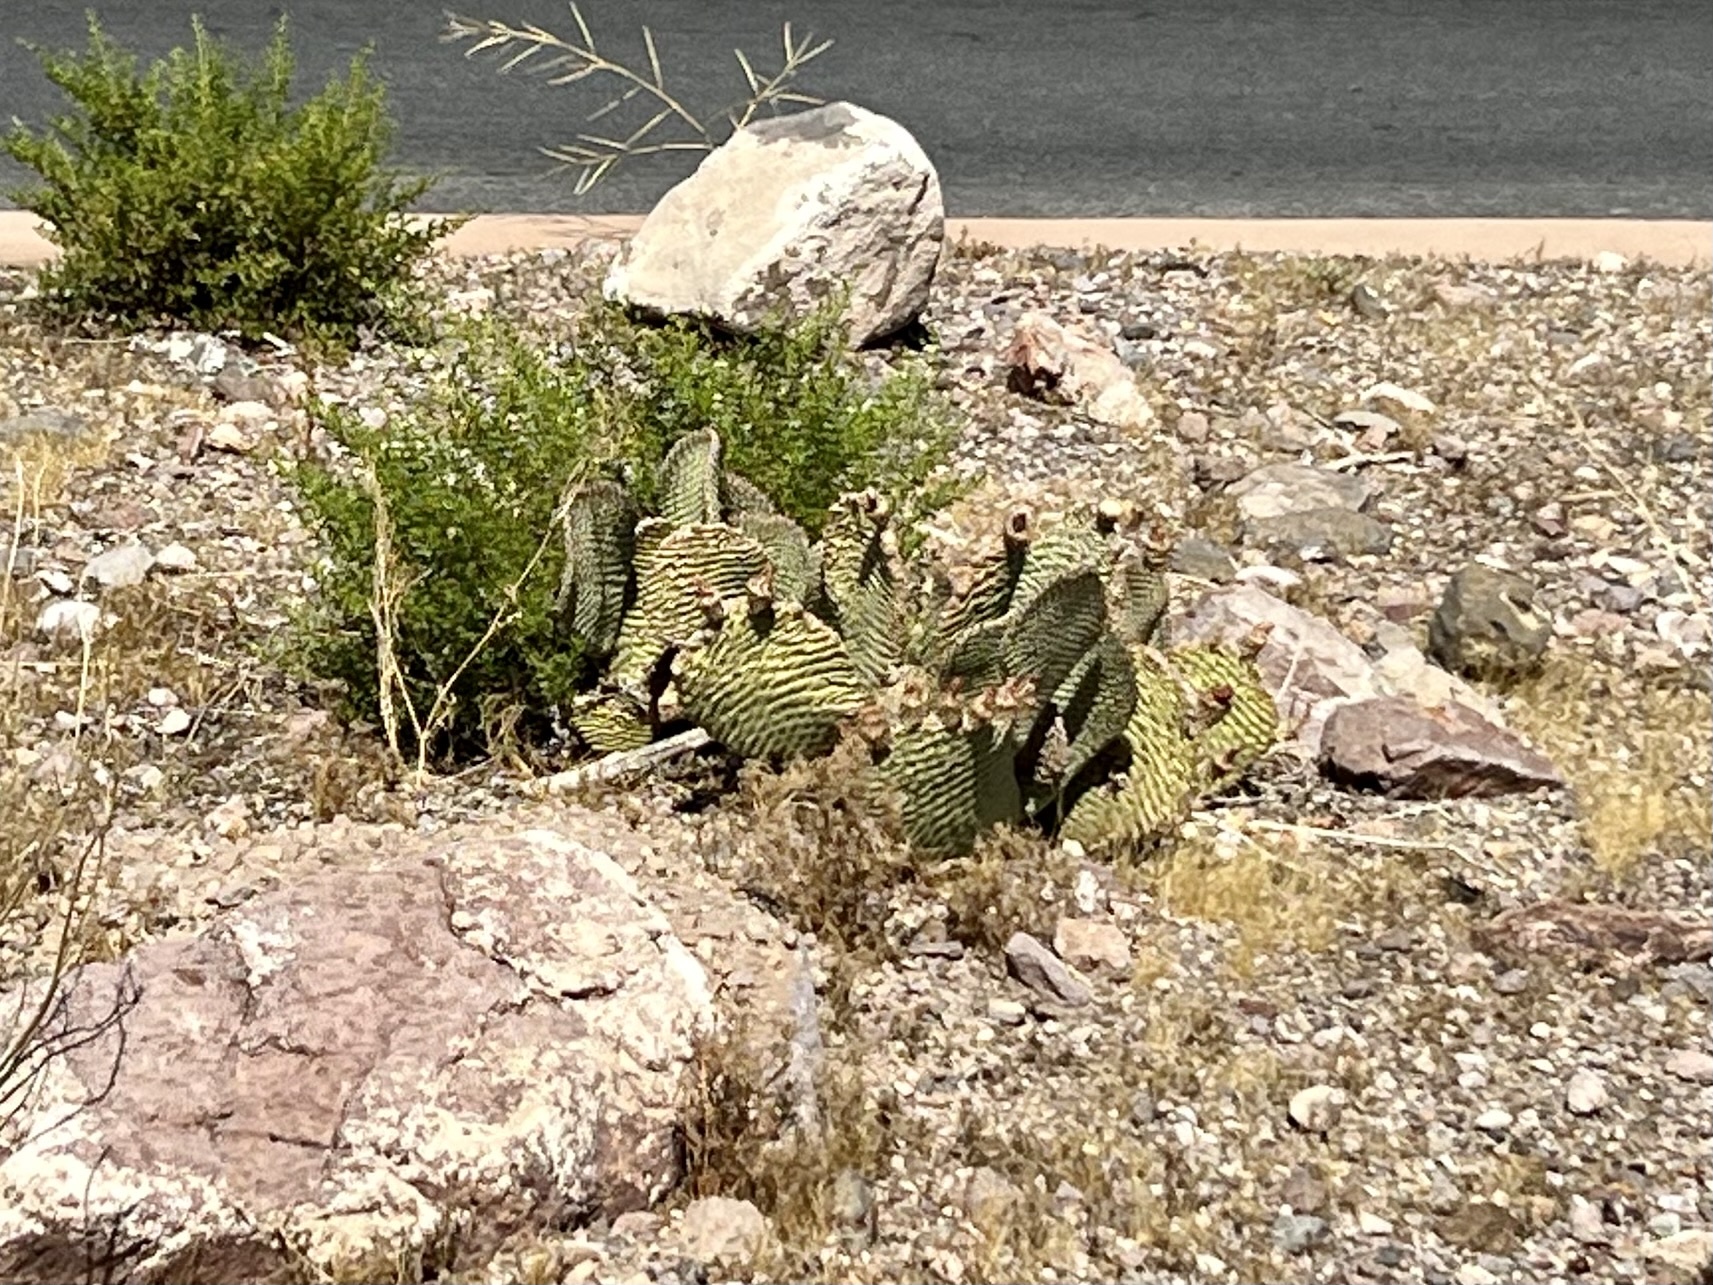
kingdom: Plantae
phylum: Tracheophyta
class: Magnoliopsida
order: Caryophyllales
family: Cactaceae
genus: Opuntia
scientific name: Opuntia basilaris
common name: Beavertail prickly-pear
